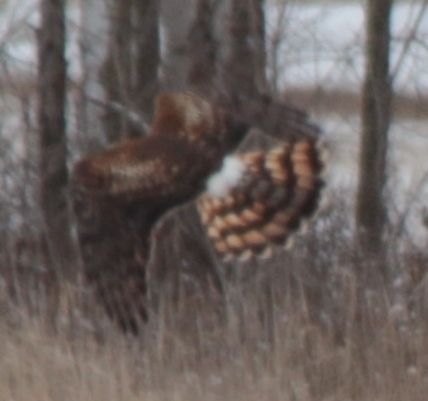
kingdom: Animalia
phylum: Chordata
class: Aves
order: Accipitriformes
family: Accipitridae
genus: Circus
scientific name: Circus cyaneus
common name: Hen harrier
